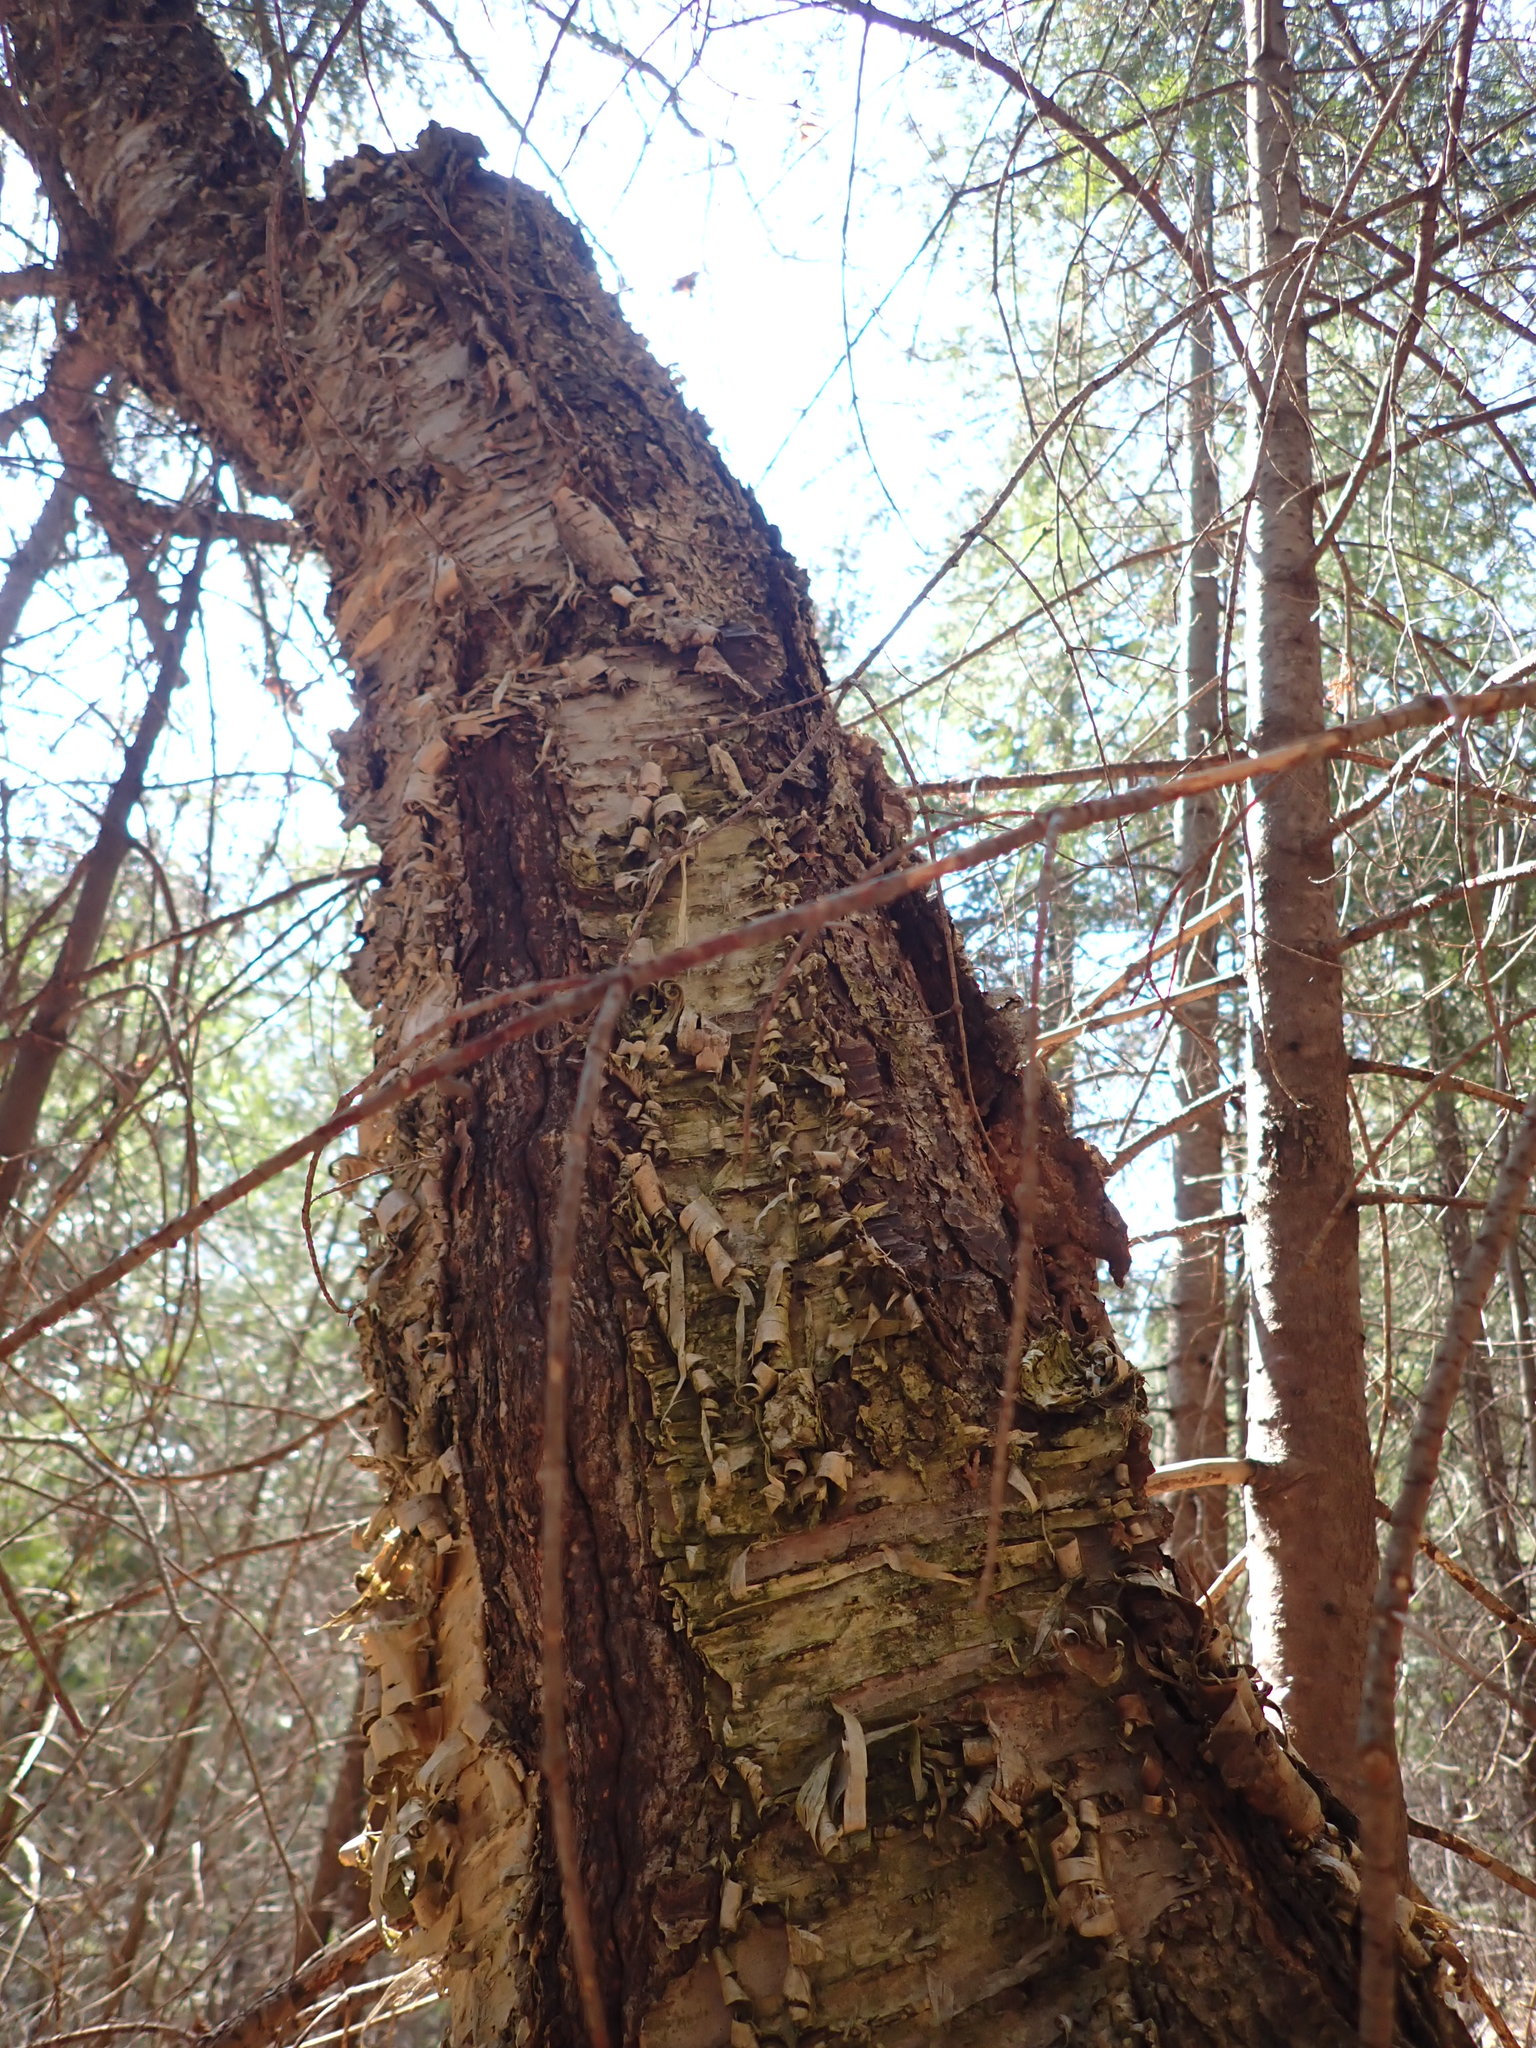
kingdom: Plantae
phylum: Tracheophyta
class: Magnoliopsida
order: Fagales
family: Betulaceae
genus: Betula
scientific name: Betula alleghaniensis
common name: Yellow birch
